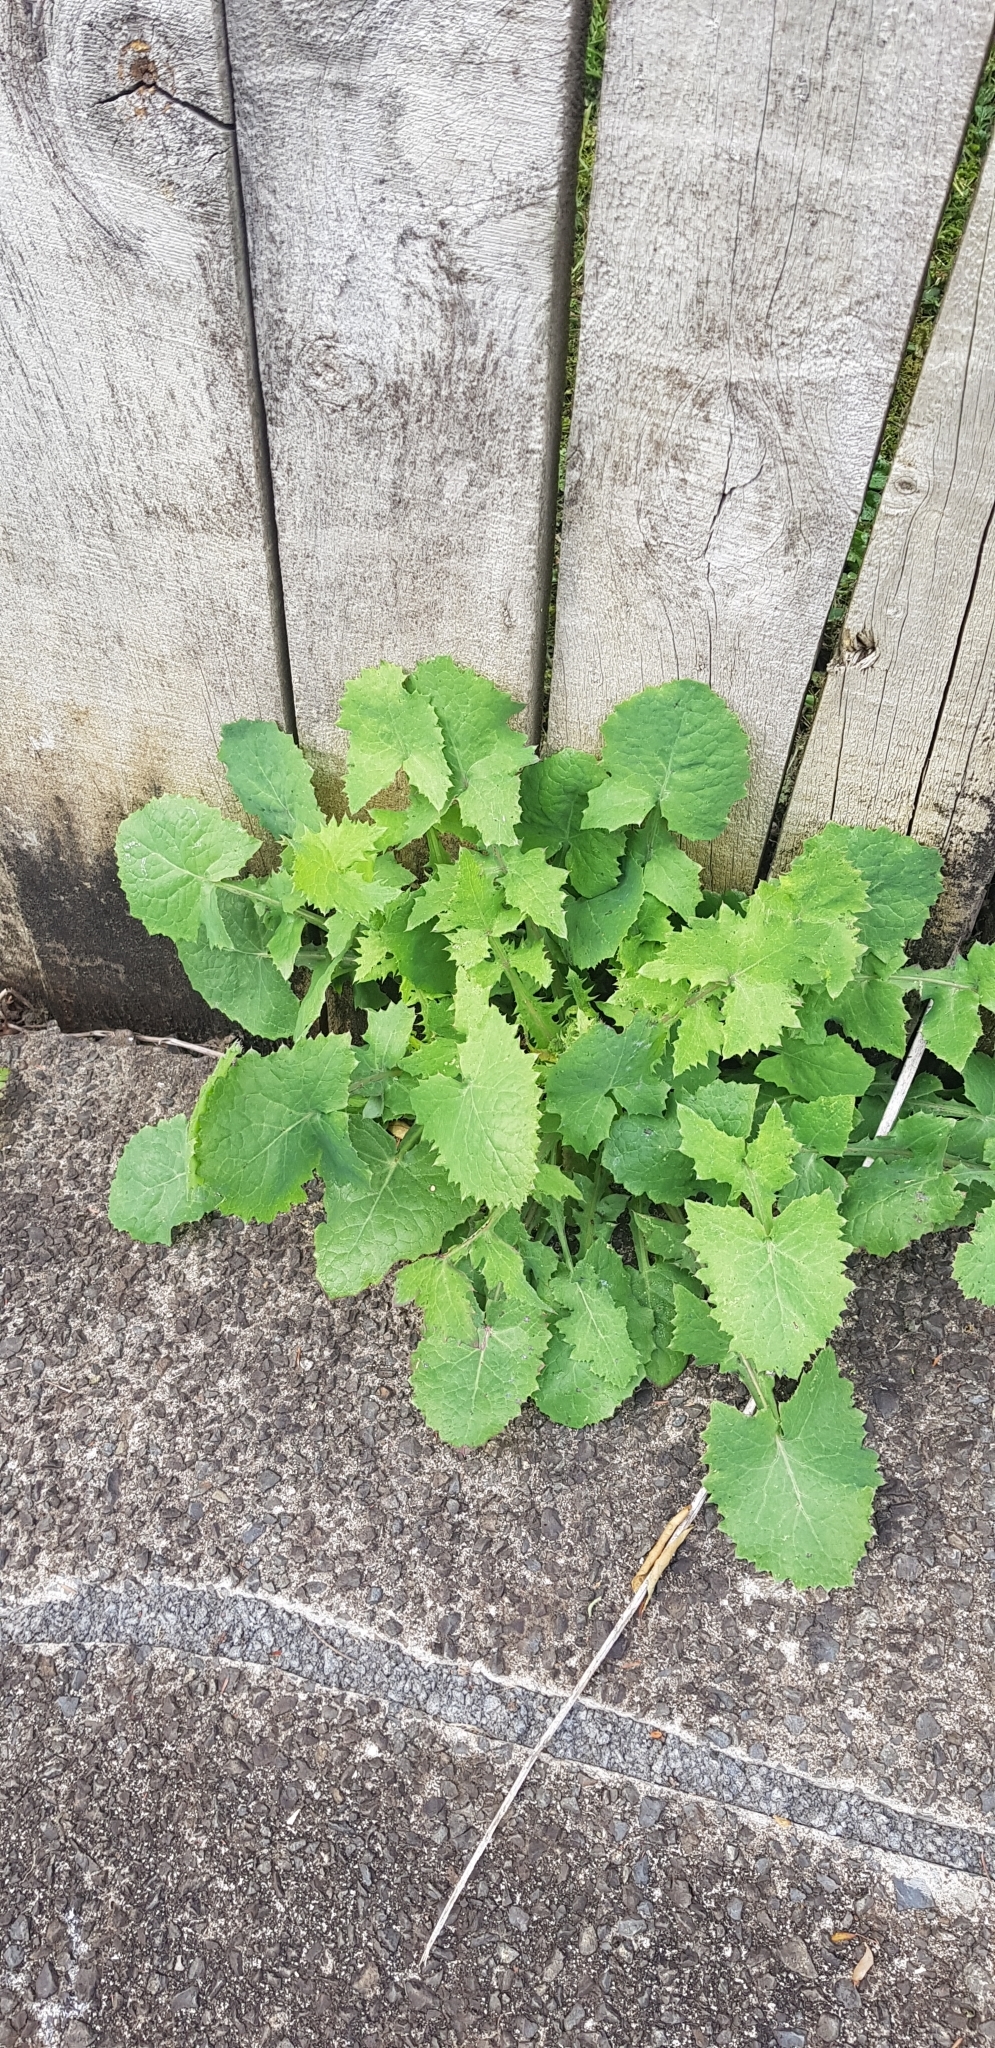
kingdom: Plantae
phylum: Tracheophyta
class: Magnoliopsida
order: Asterales
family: Asteraceae
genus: Sonchus
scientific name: Sonchus oleraceus
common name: Common sowthistle
